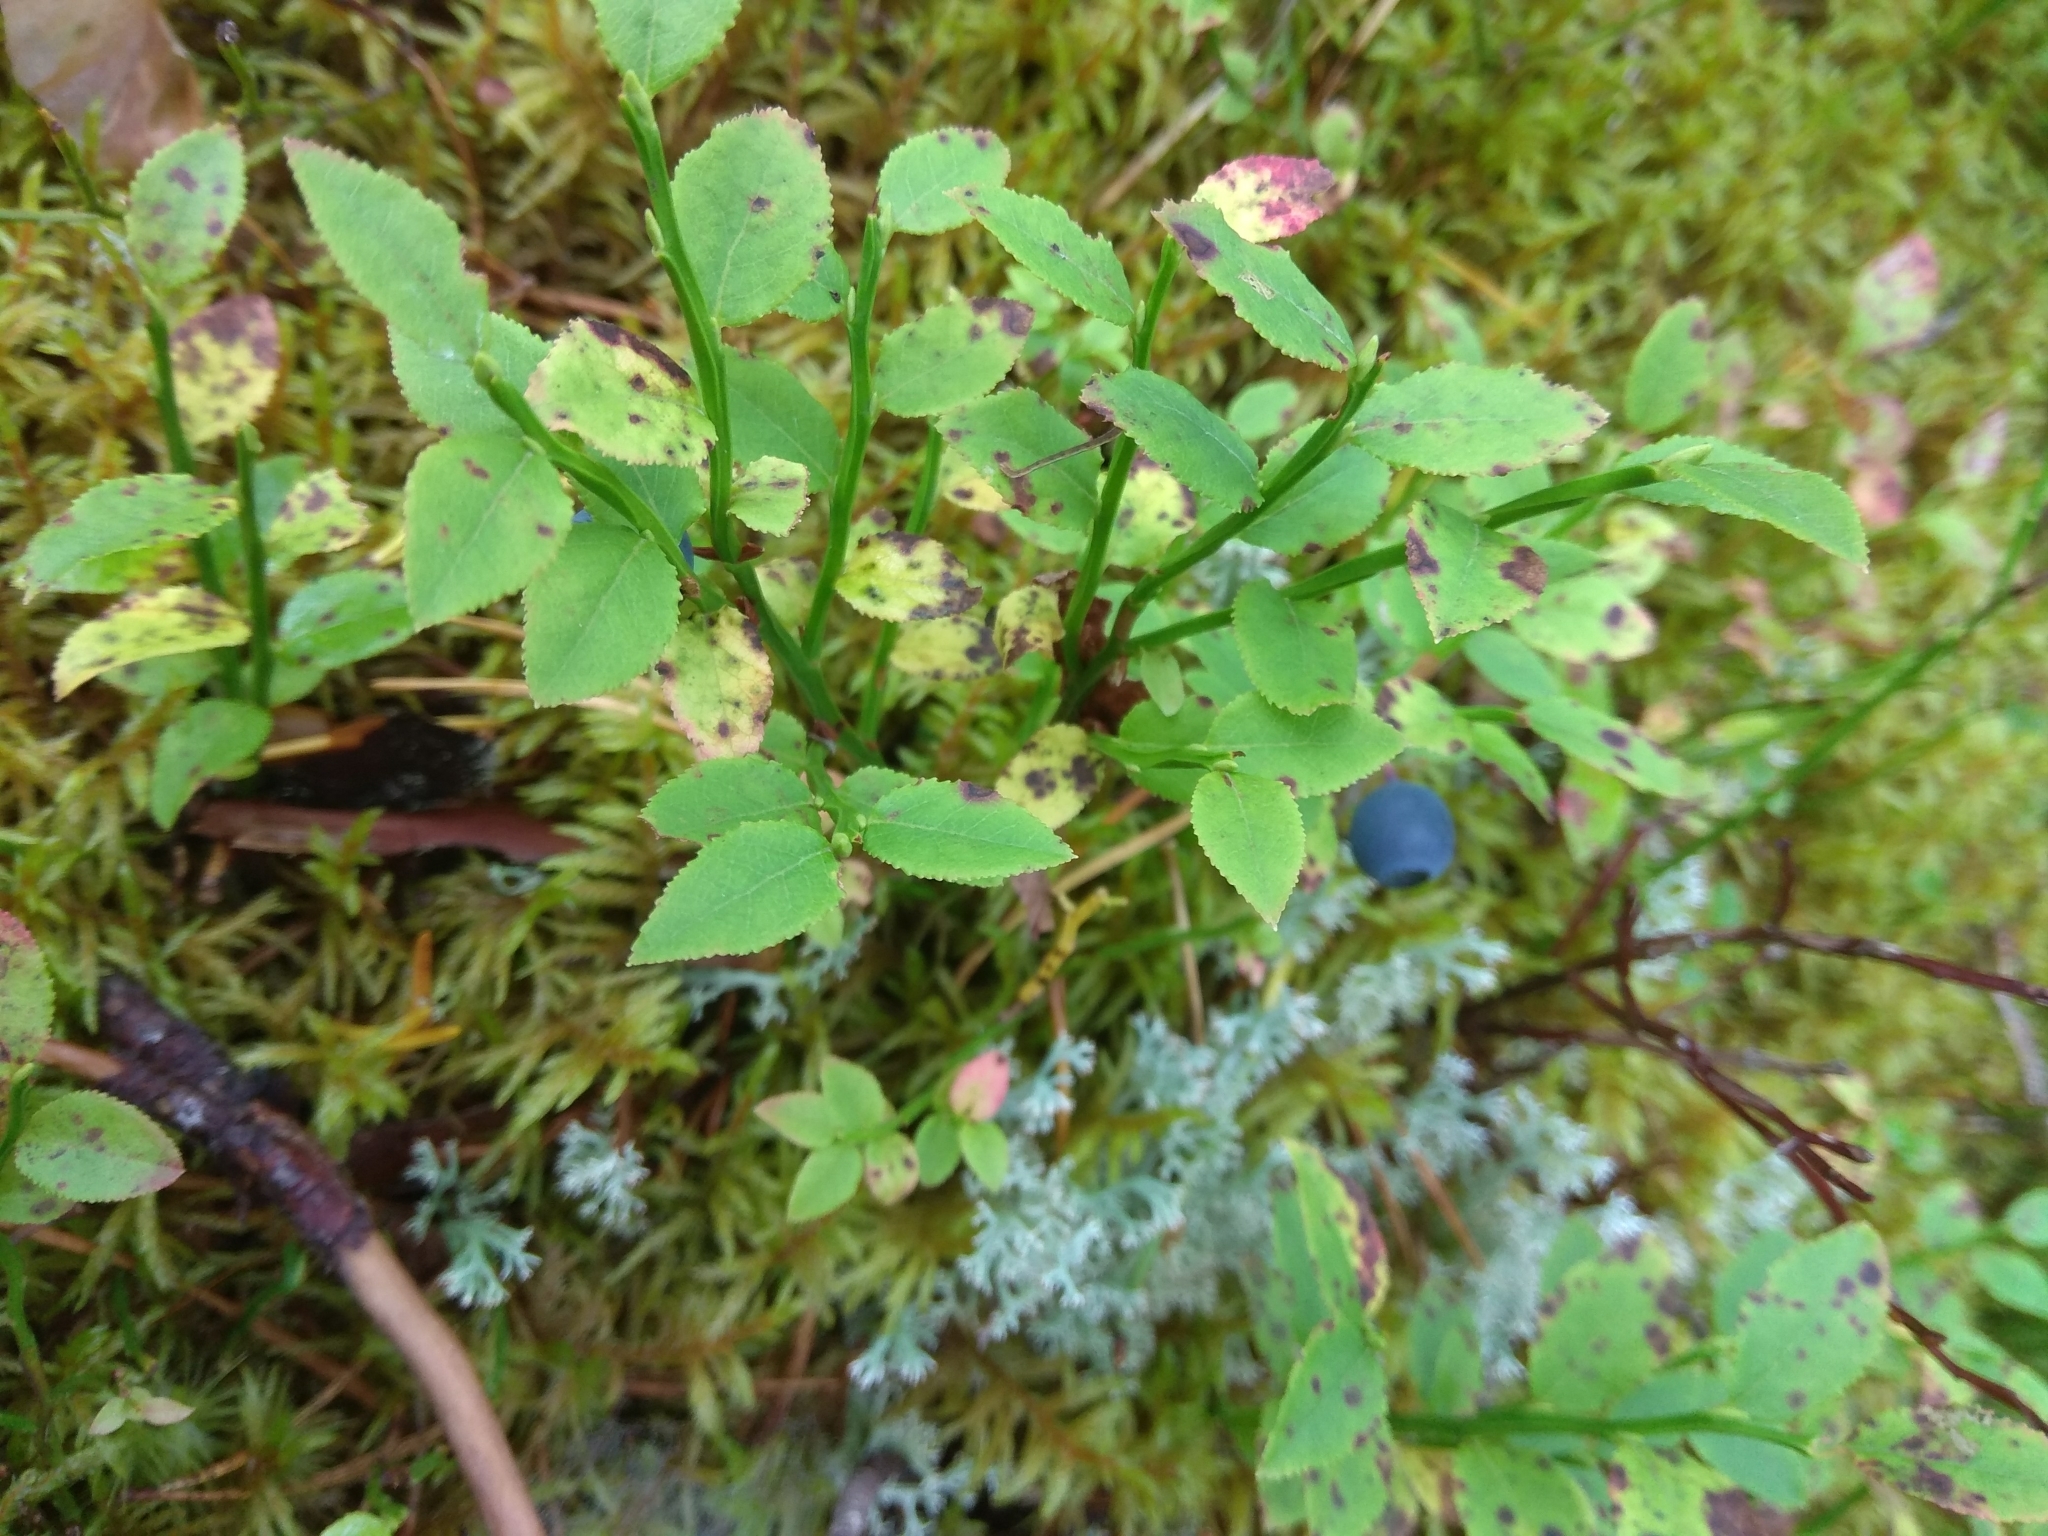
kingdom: Plantae
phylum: Tracheophyta
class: Magnoliopsida
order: Ericales
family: Ericaceae
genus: Vaccinium
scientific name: Vaccinium myrtillus
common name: Bilberry
